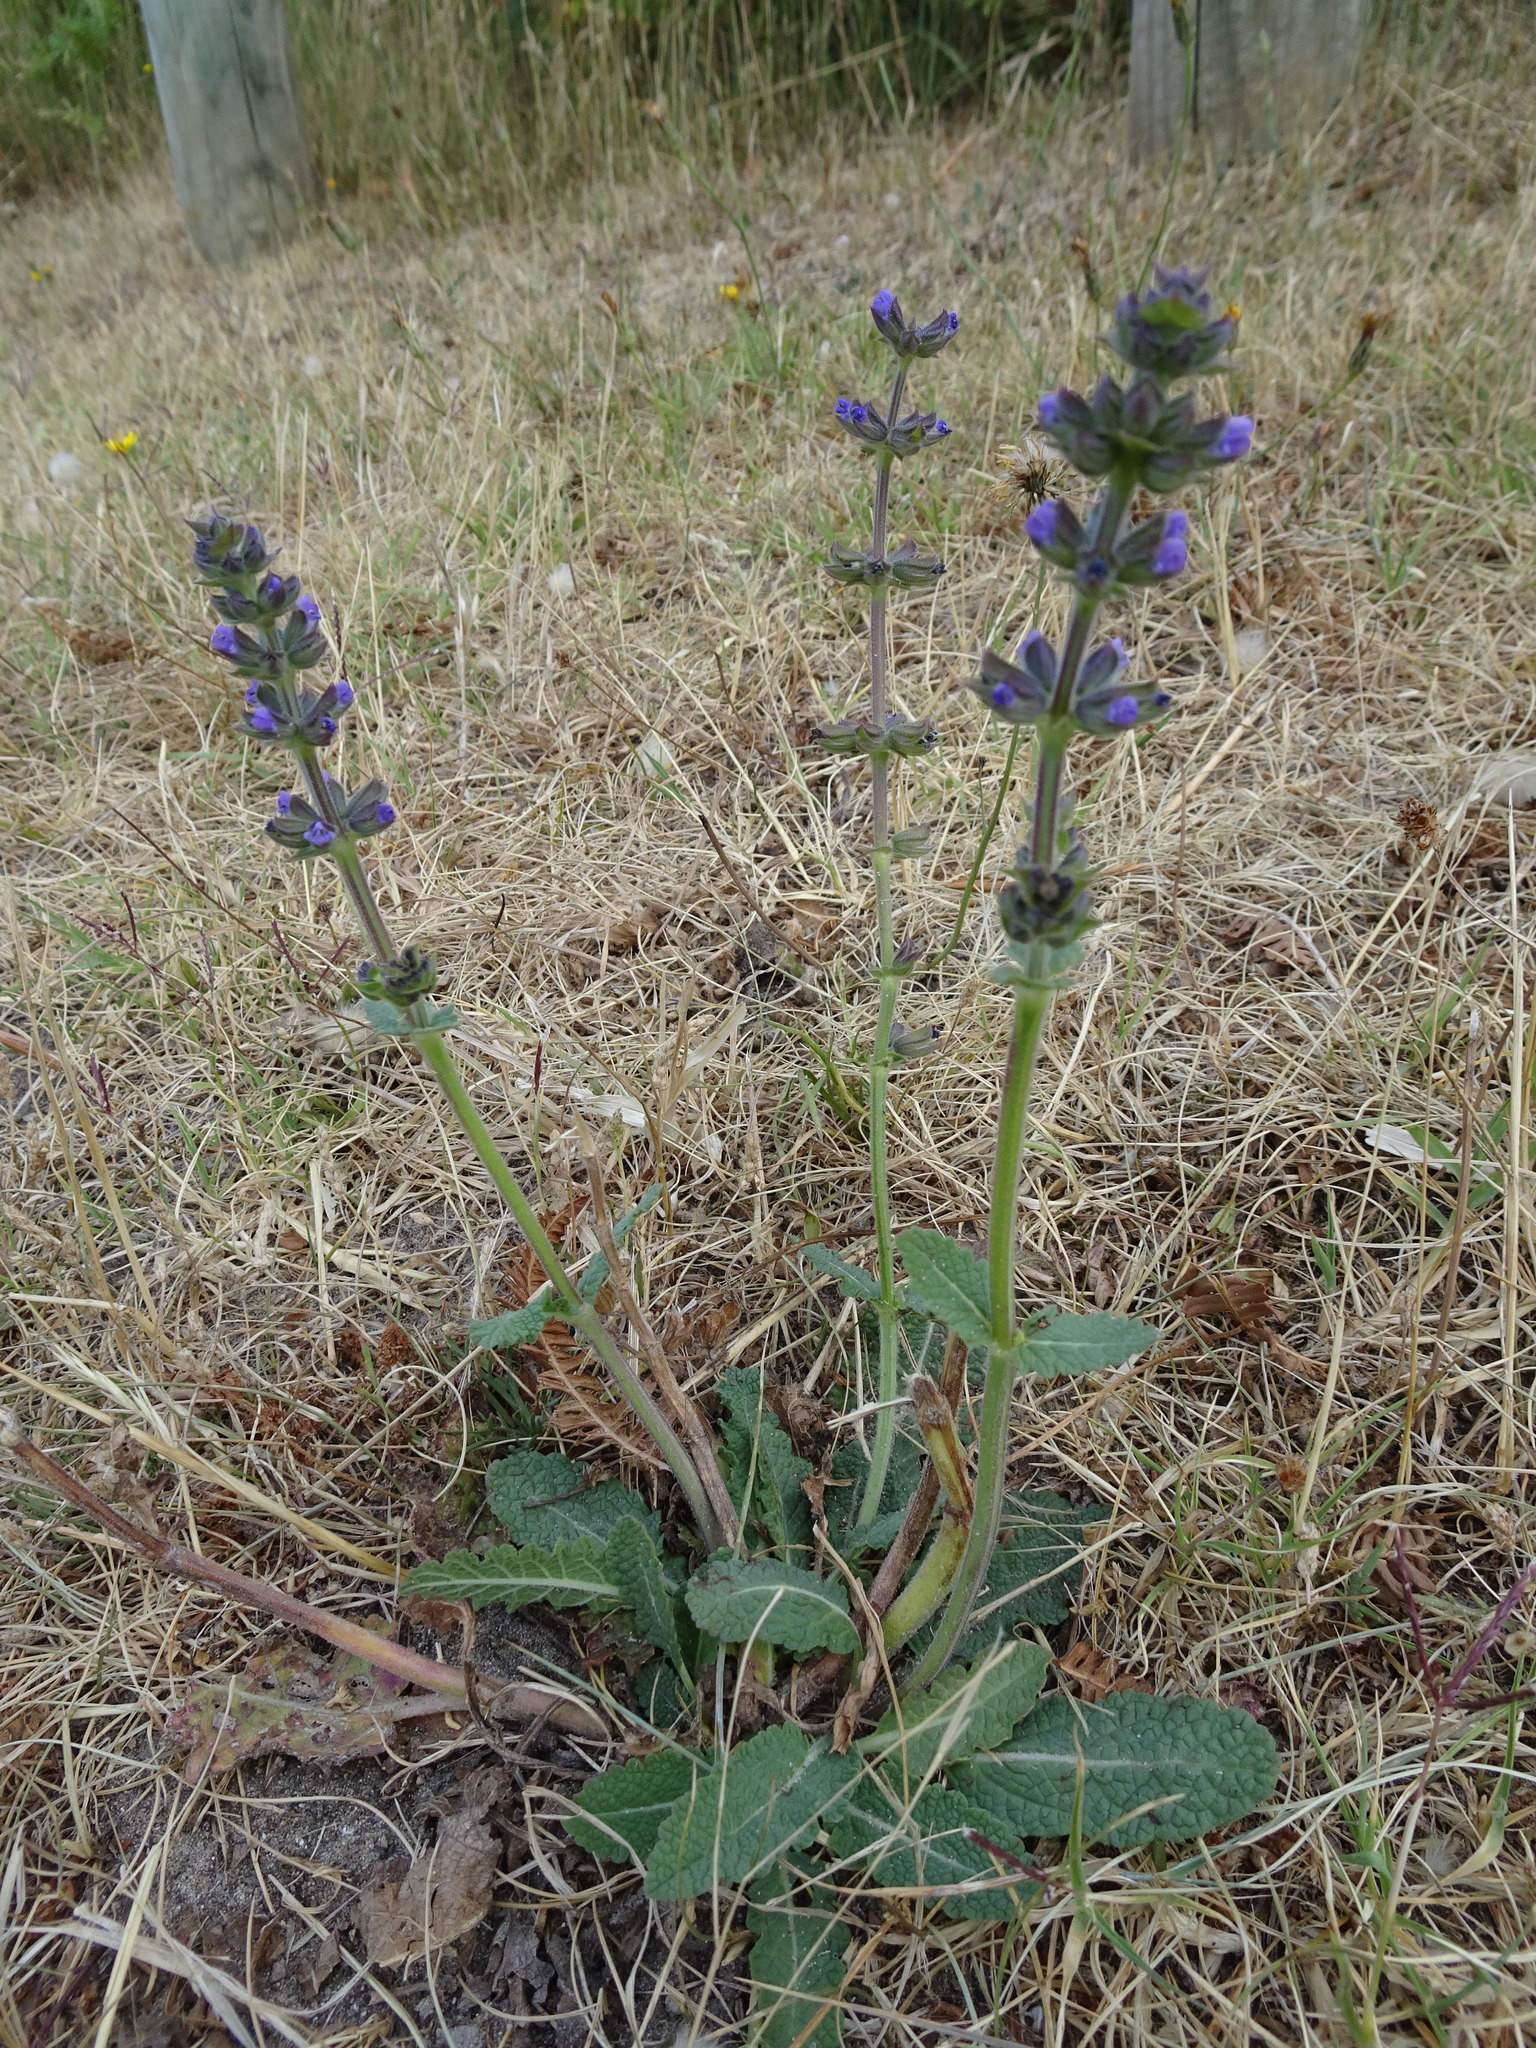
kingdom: Plantae
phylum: Tracheophyta
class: Magnoliopsida
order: Lamiales
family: Lamiaceae
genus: Salvia
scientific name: Salvia verbenaca
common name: Wild clary
